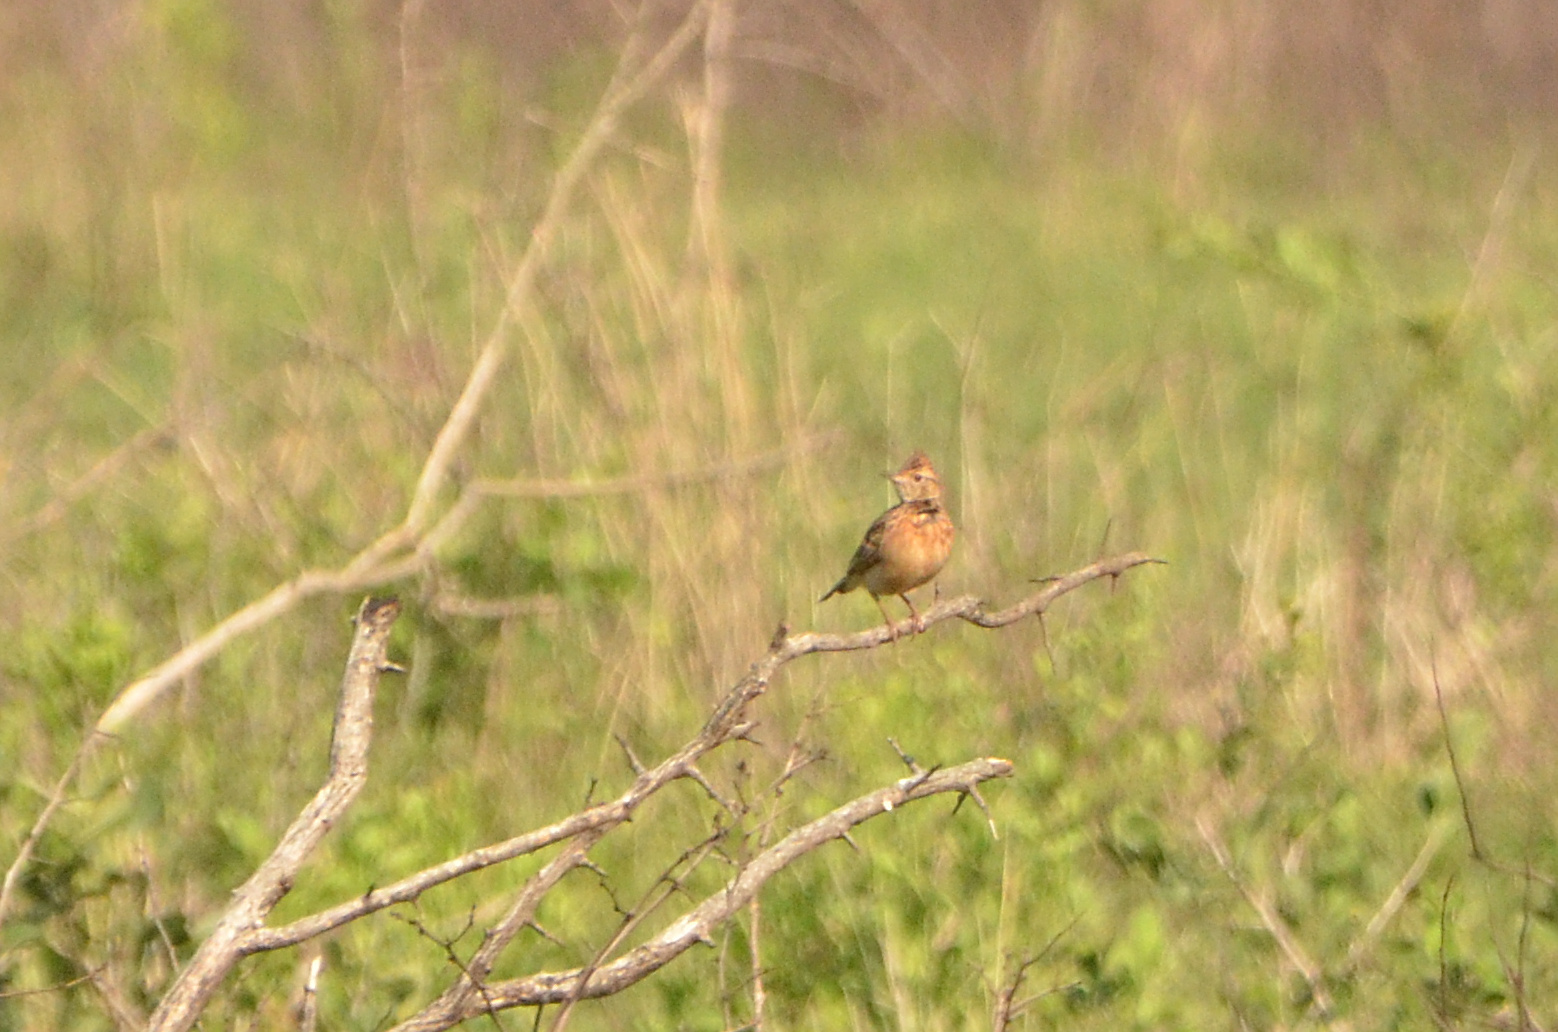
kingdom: Animalia
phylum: Chordata
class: Aves
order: Passeriformes
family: Alaudidae
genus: Mirafra
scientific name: Mirafra africana
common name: Rufous-naped lark
